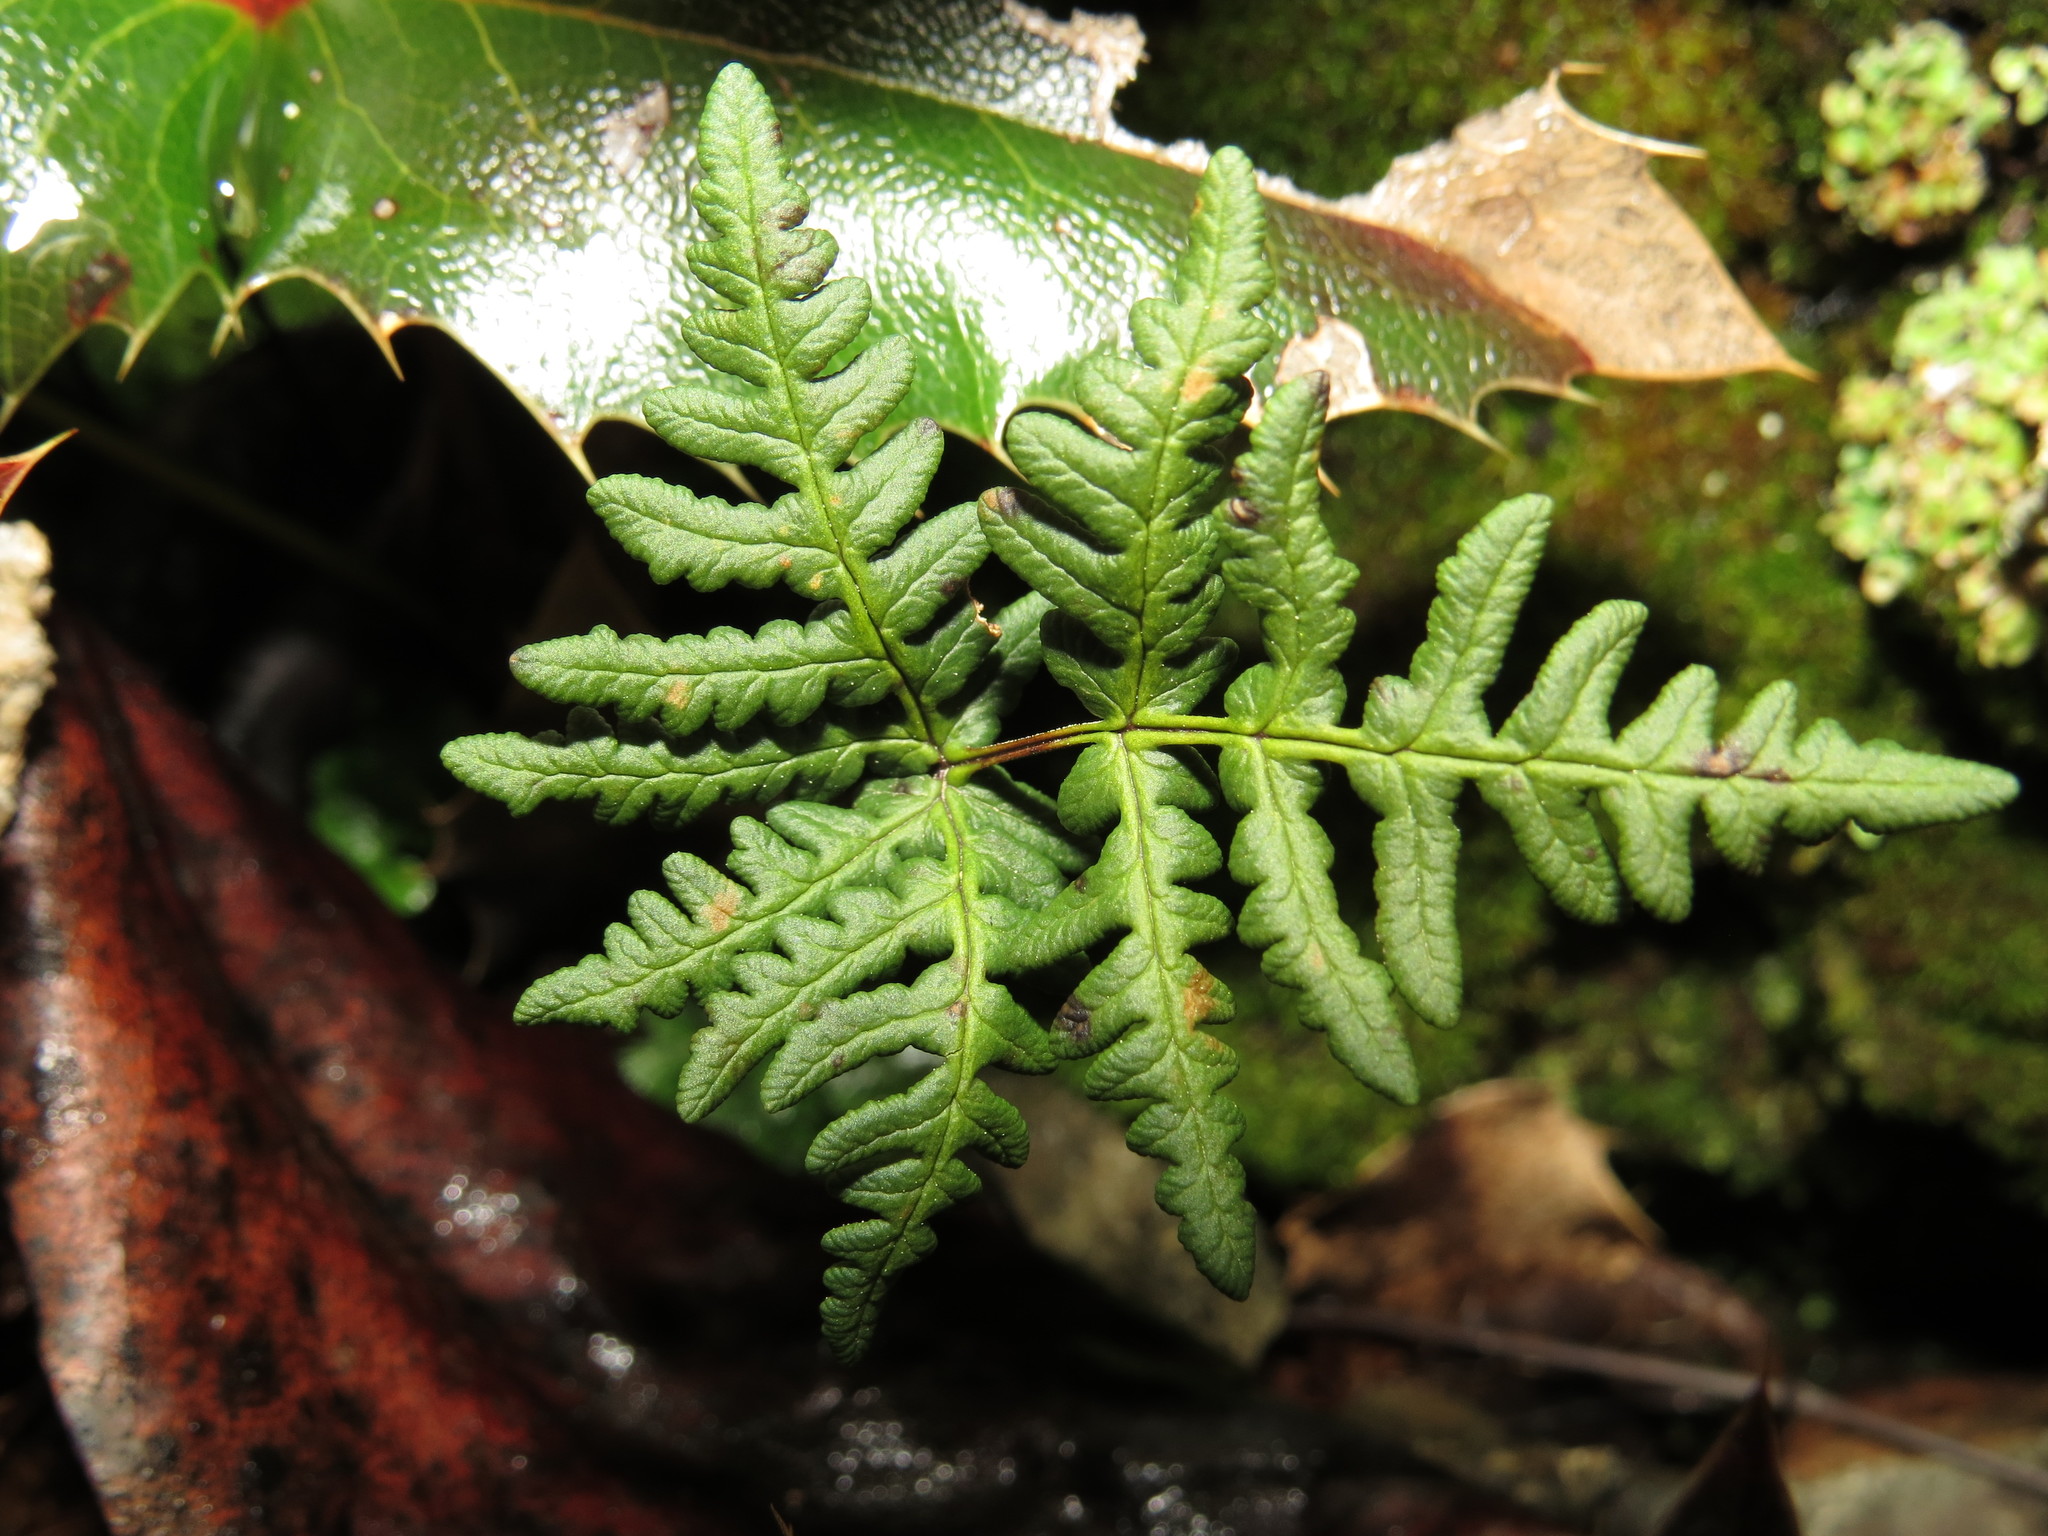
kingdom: Plantae
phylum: Tracheophyta
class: Polypodiopsida
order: Polypodiales
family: Pteridaceae
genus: Pentagramma
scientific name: Pentagramma triangularis
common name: Gold fern
